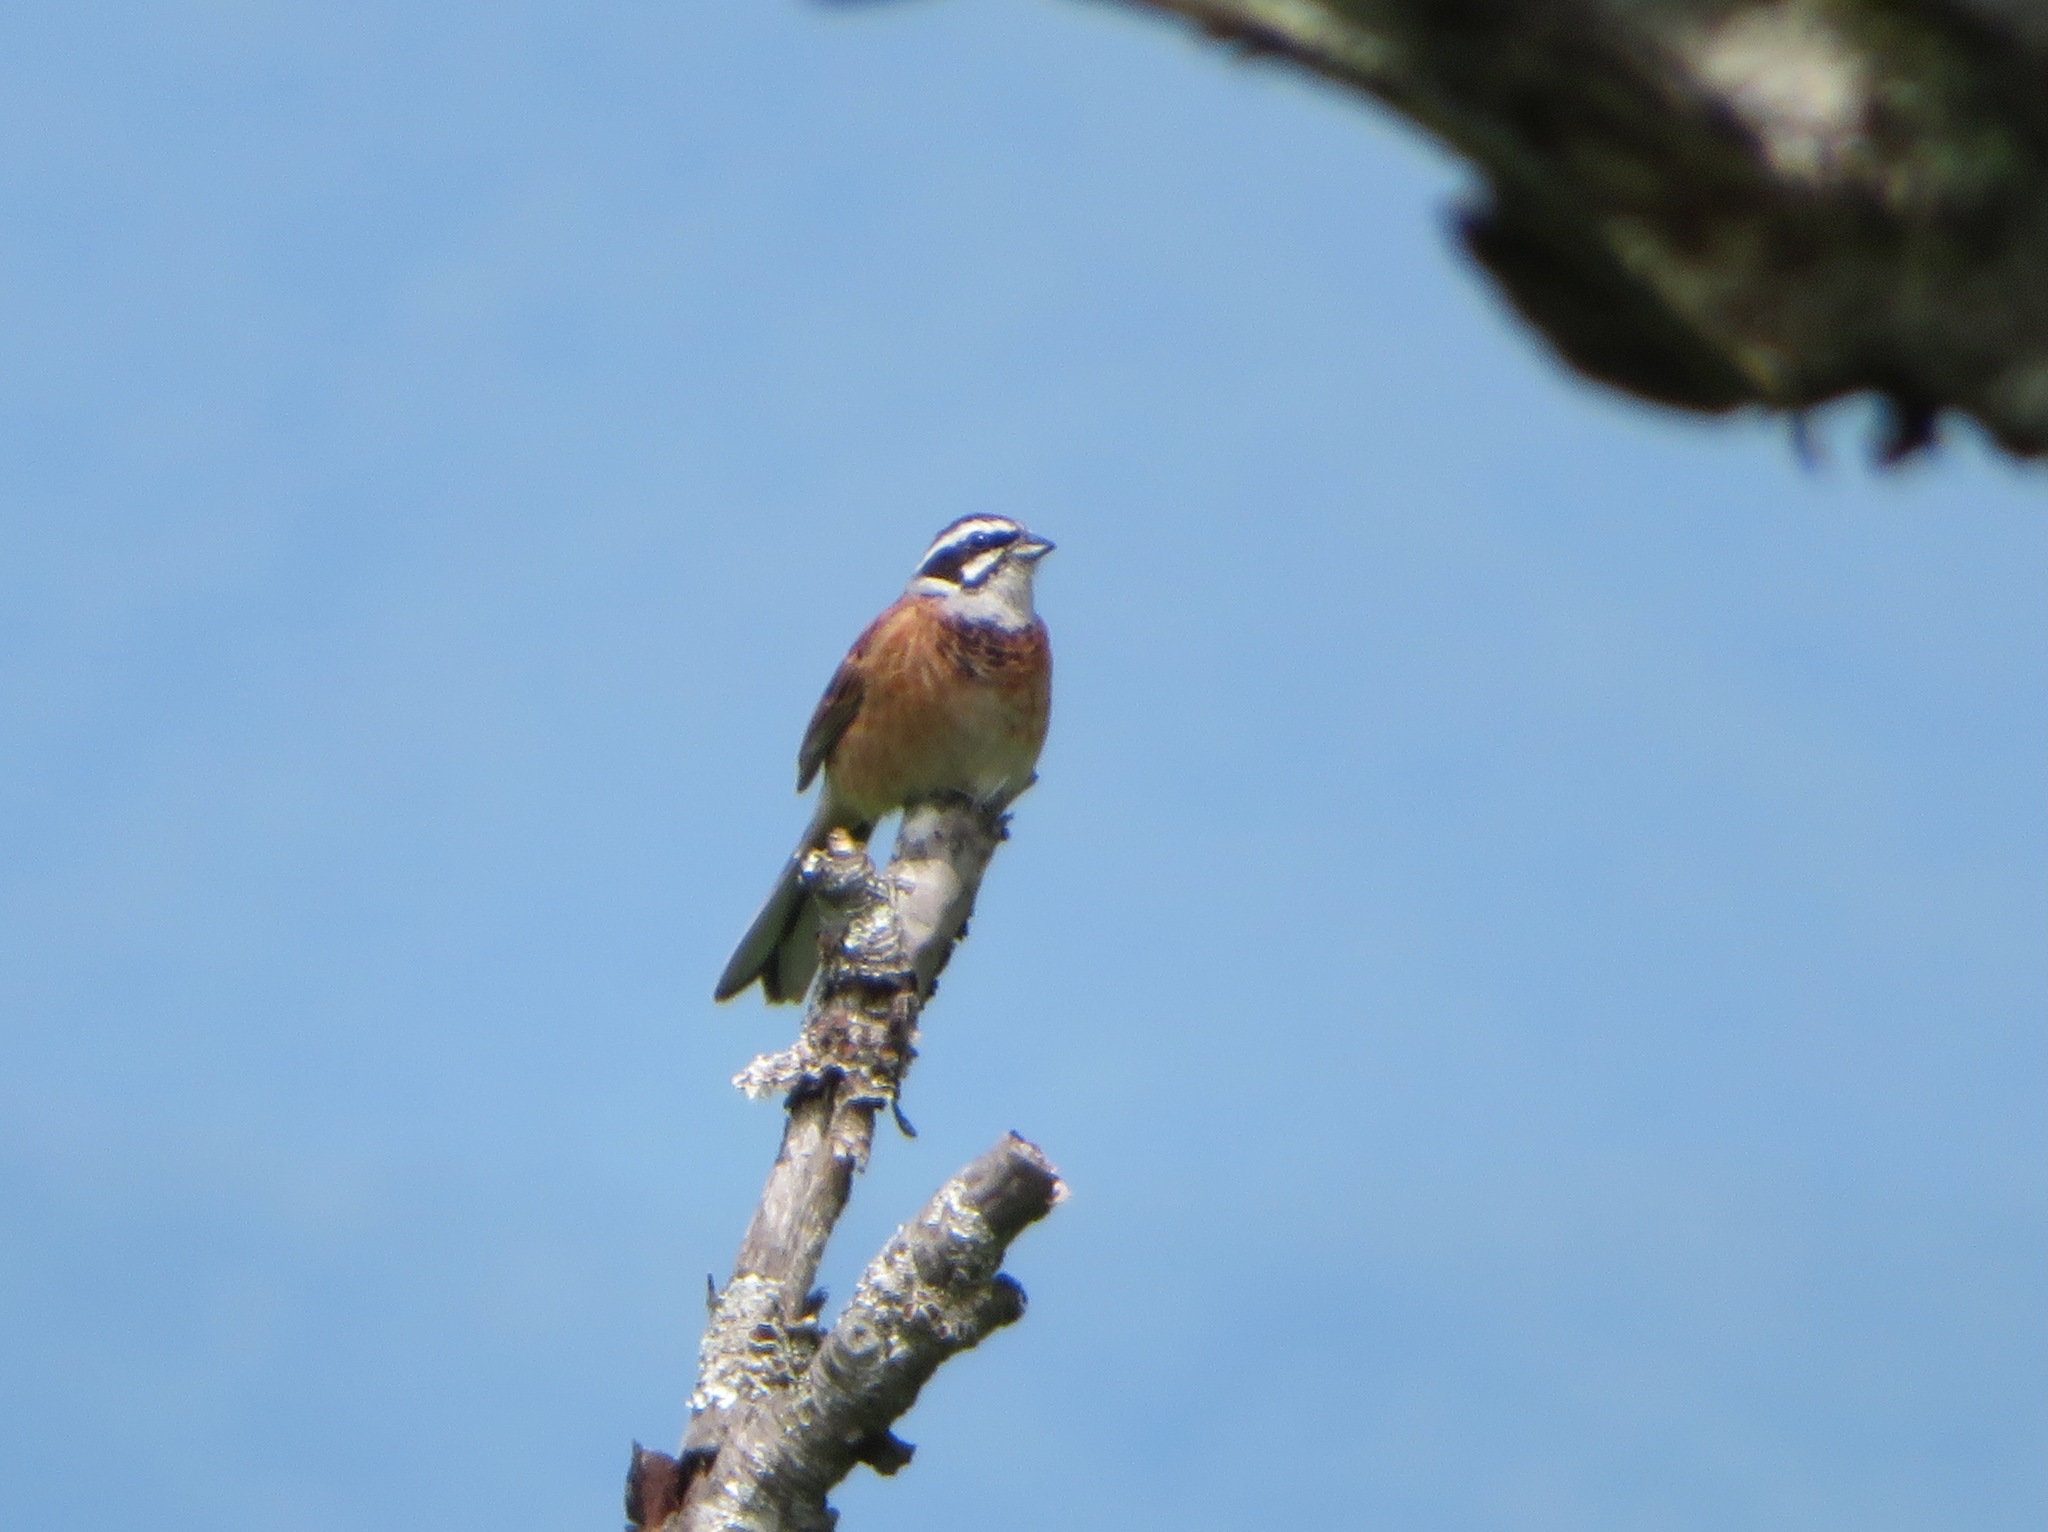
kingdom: Animalia
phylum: Chordata
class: Aves
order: Passeriformes
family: Emberizidae
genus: Emberiza
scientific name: Emberiza cioides
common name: Meadow bunting
